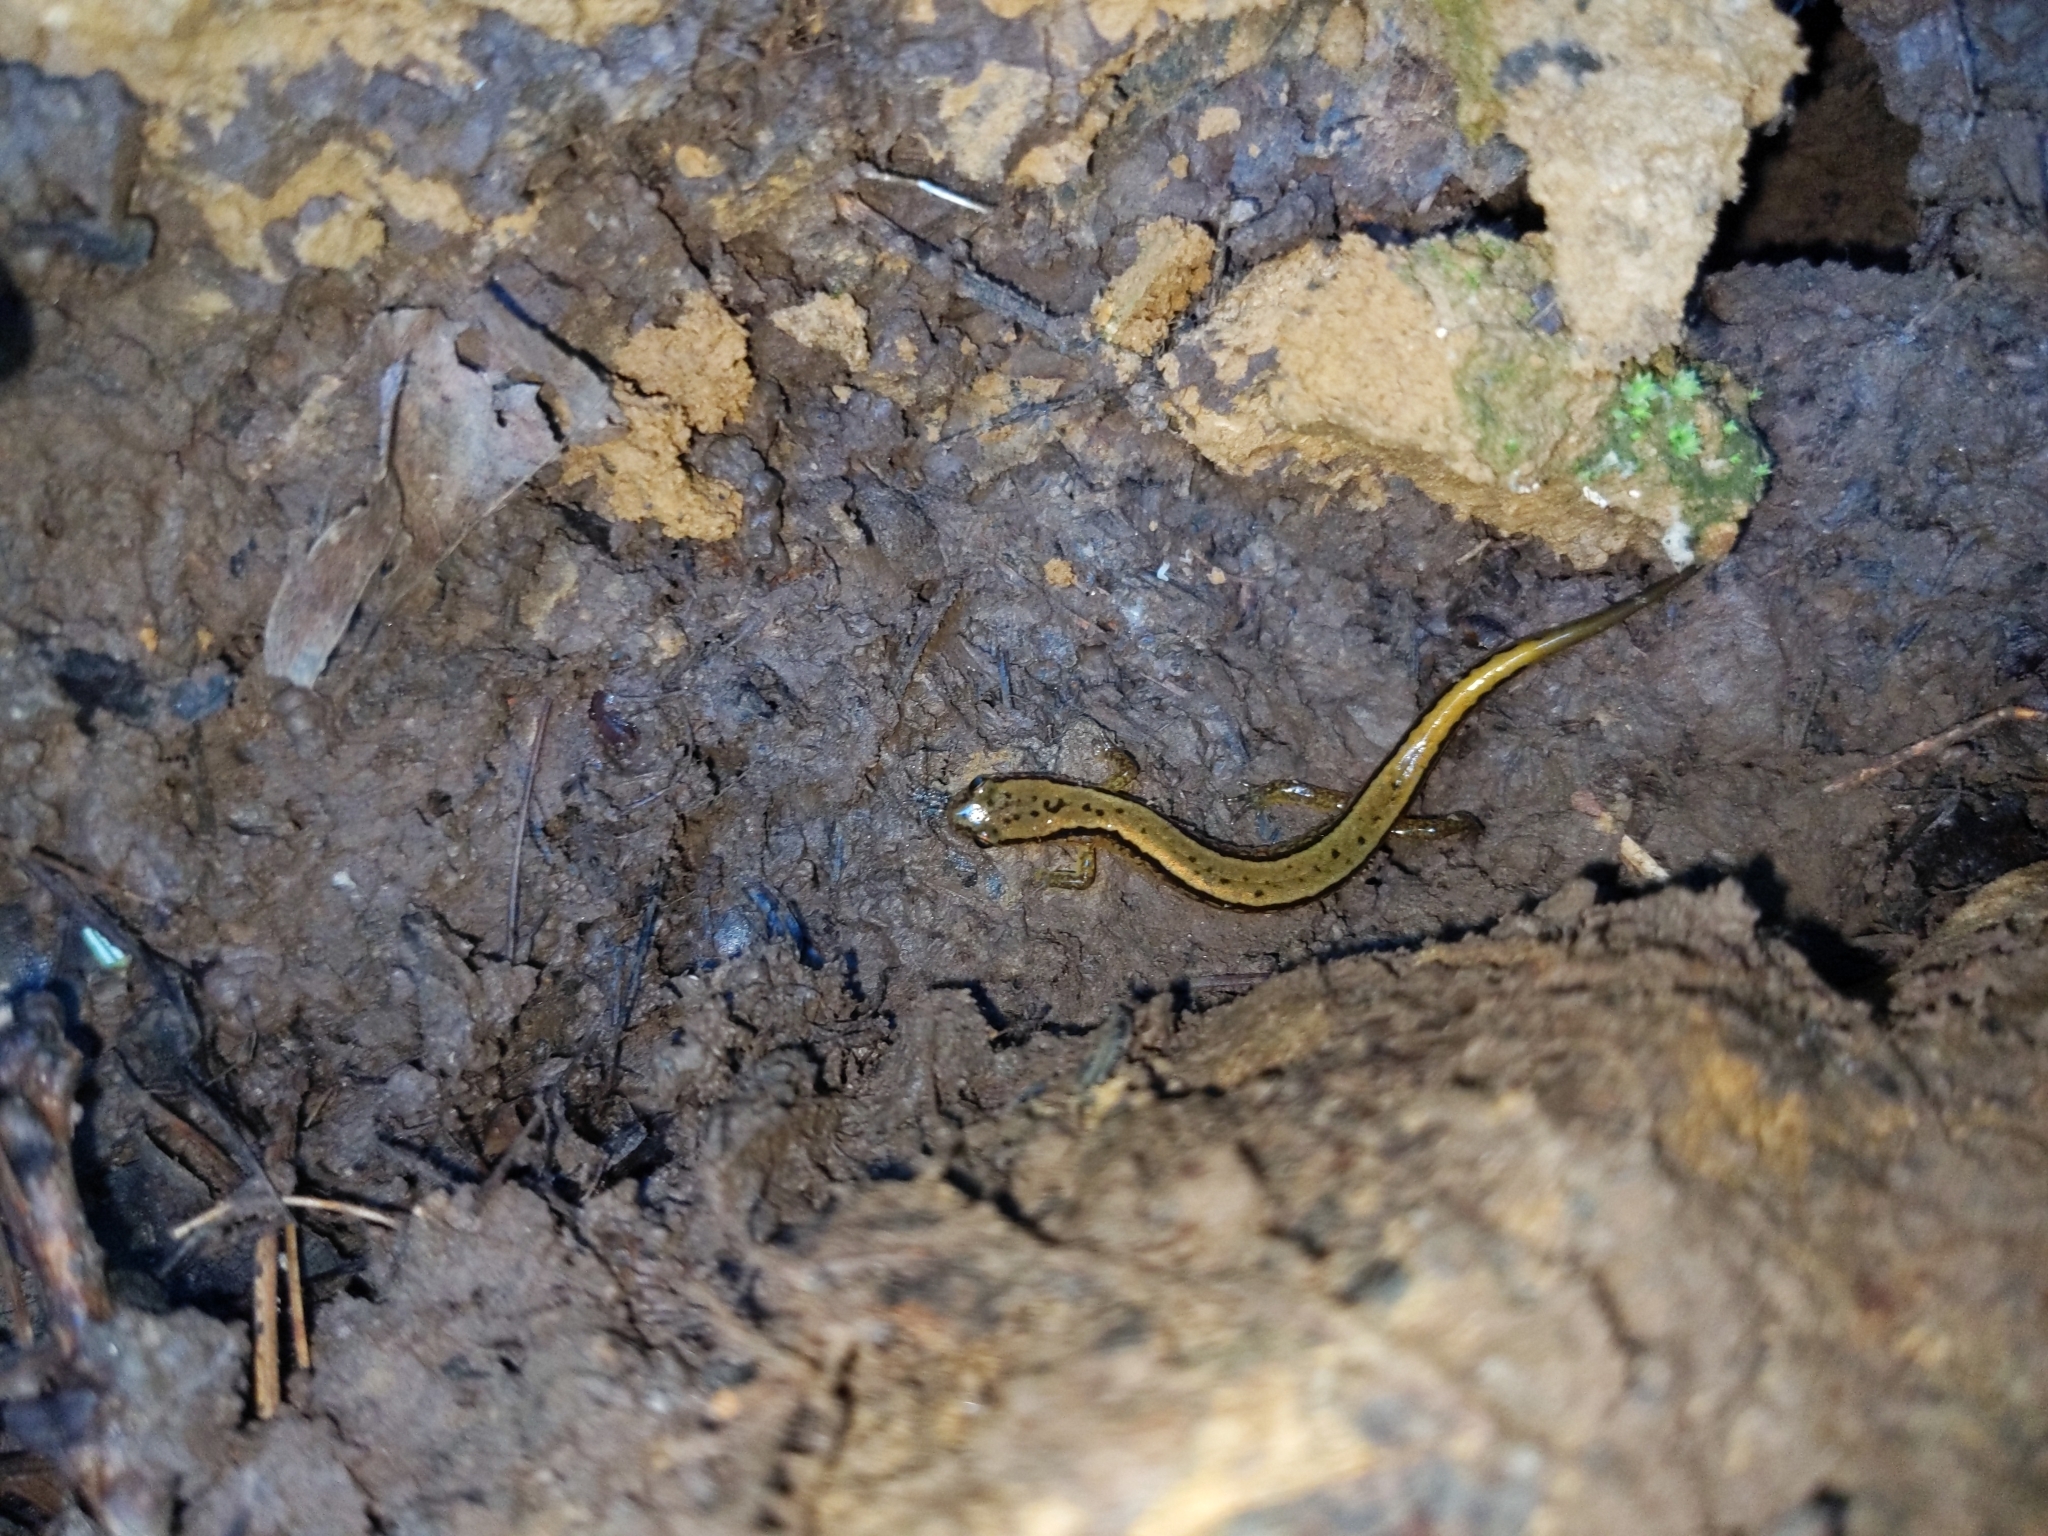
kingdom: Animalia
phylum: Chordata
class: Amphibia
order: Caudata
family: Plethodontidae
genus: Eurycea
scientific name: Eurycea bislineata
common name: Northern two-lined salamander
